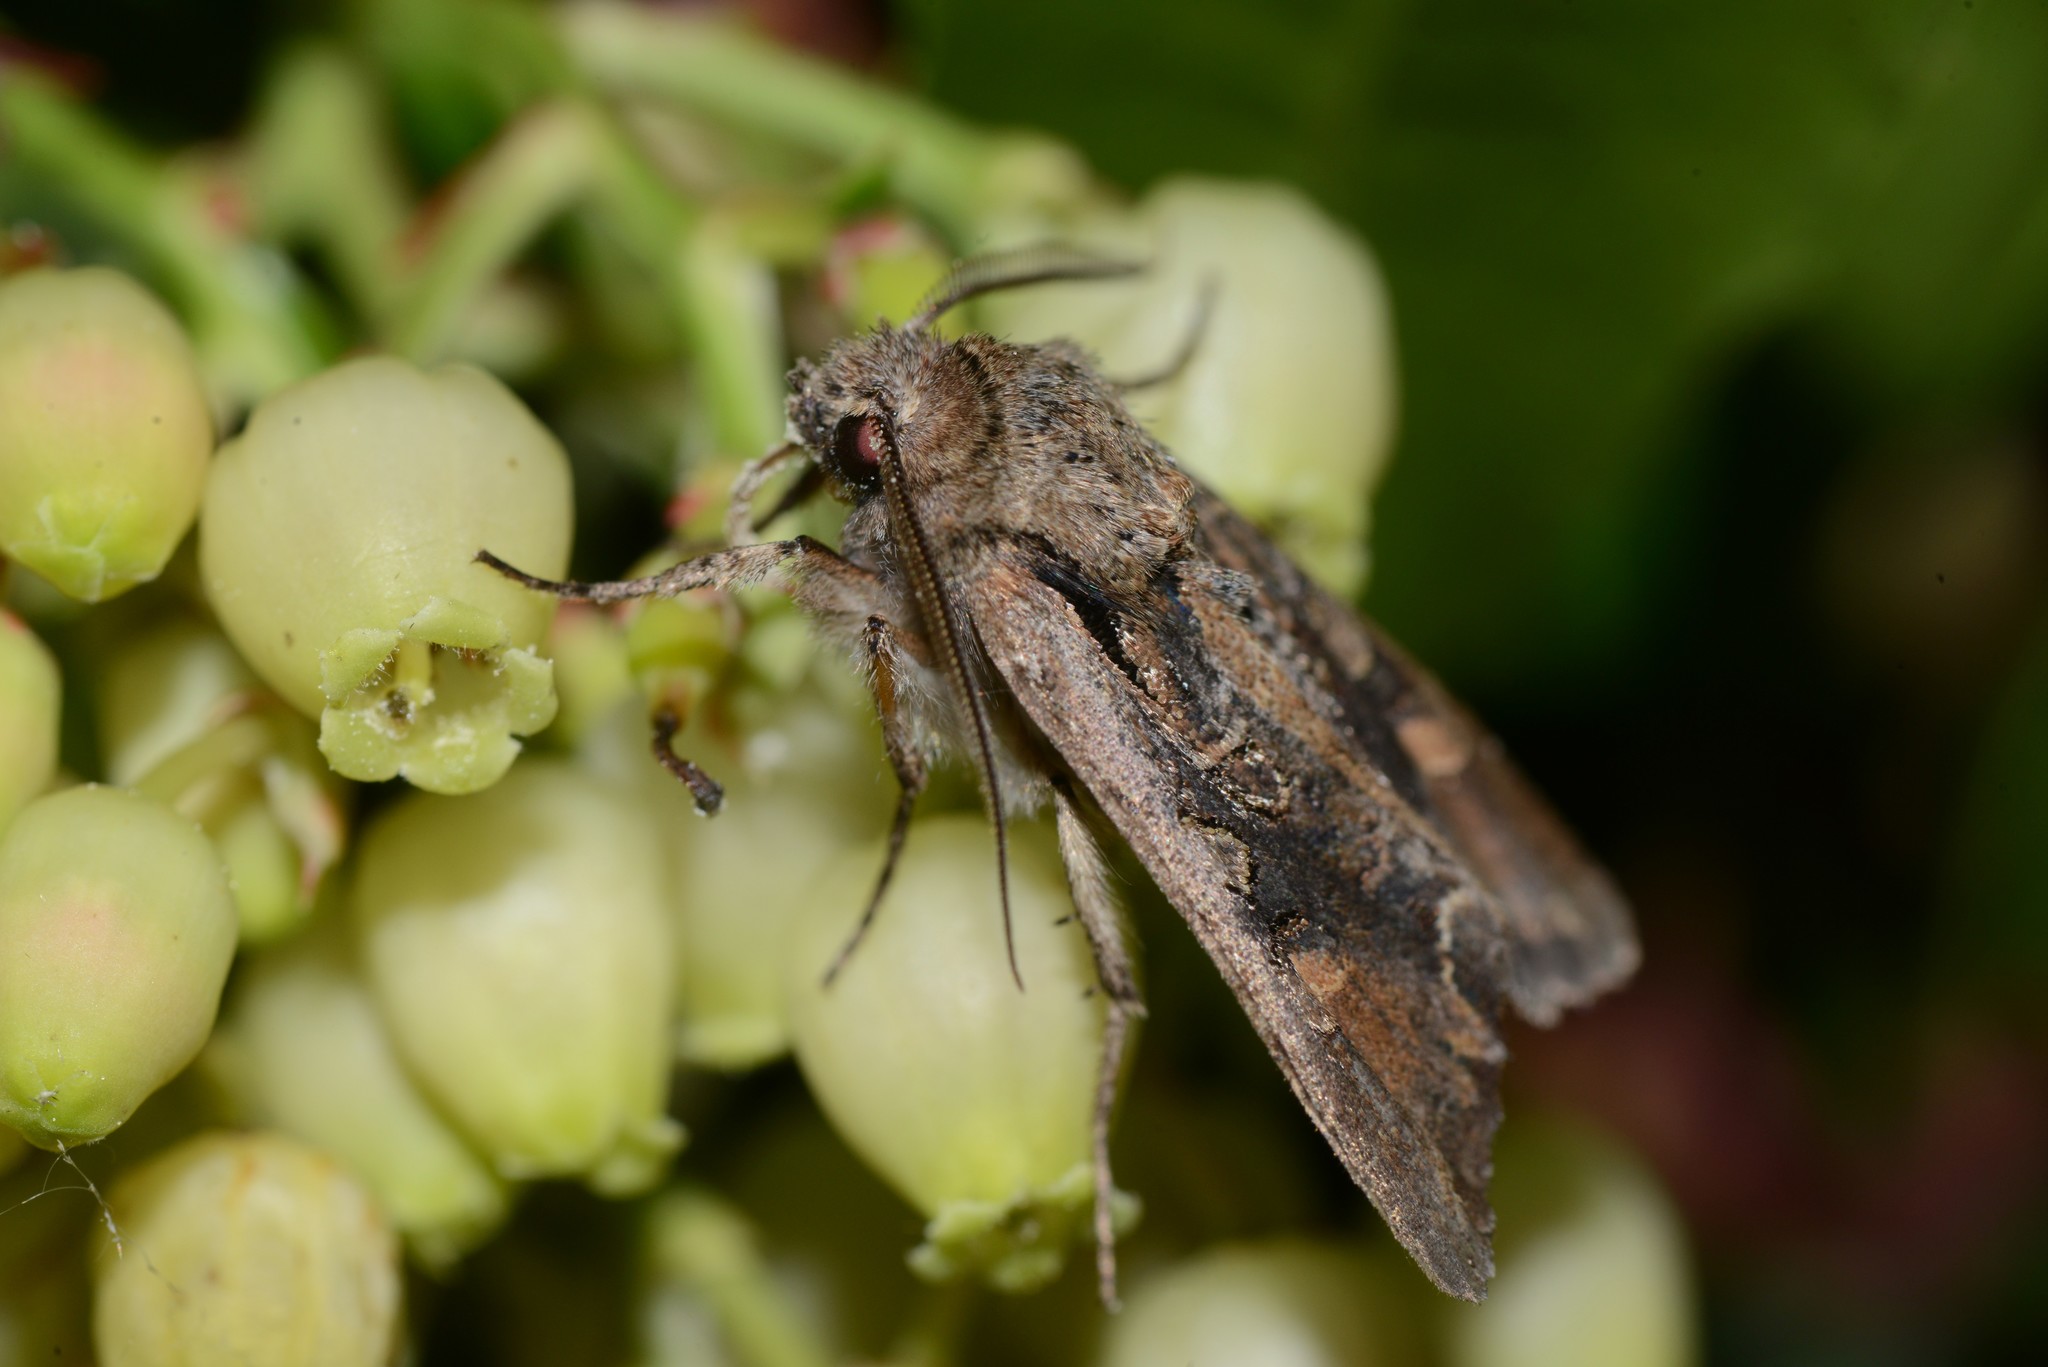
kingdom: Animalia
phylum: Arthropoda
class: Insecta
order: Lepidoptera
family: Noctuidae
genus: Ichneutica
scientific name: Ichneutica insignis
